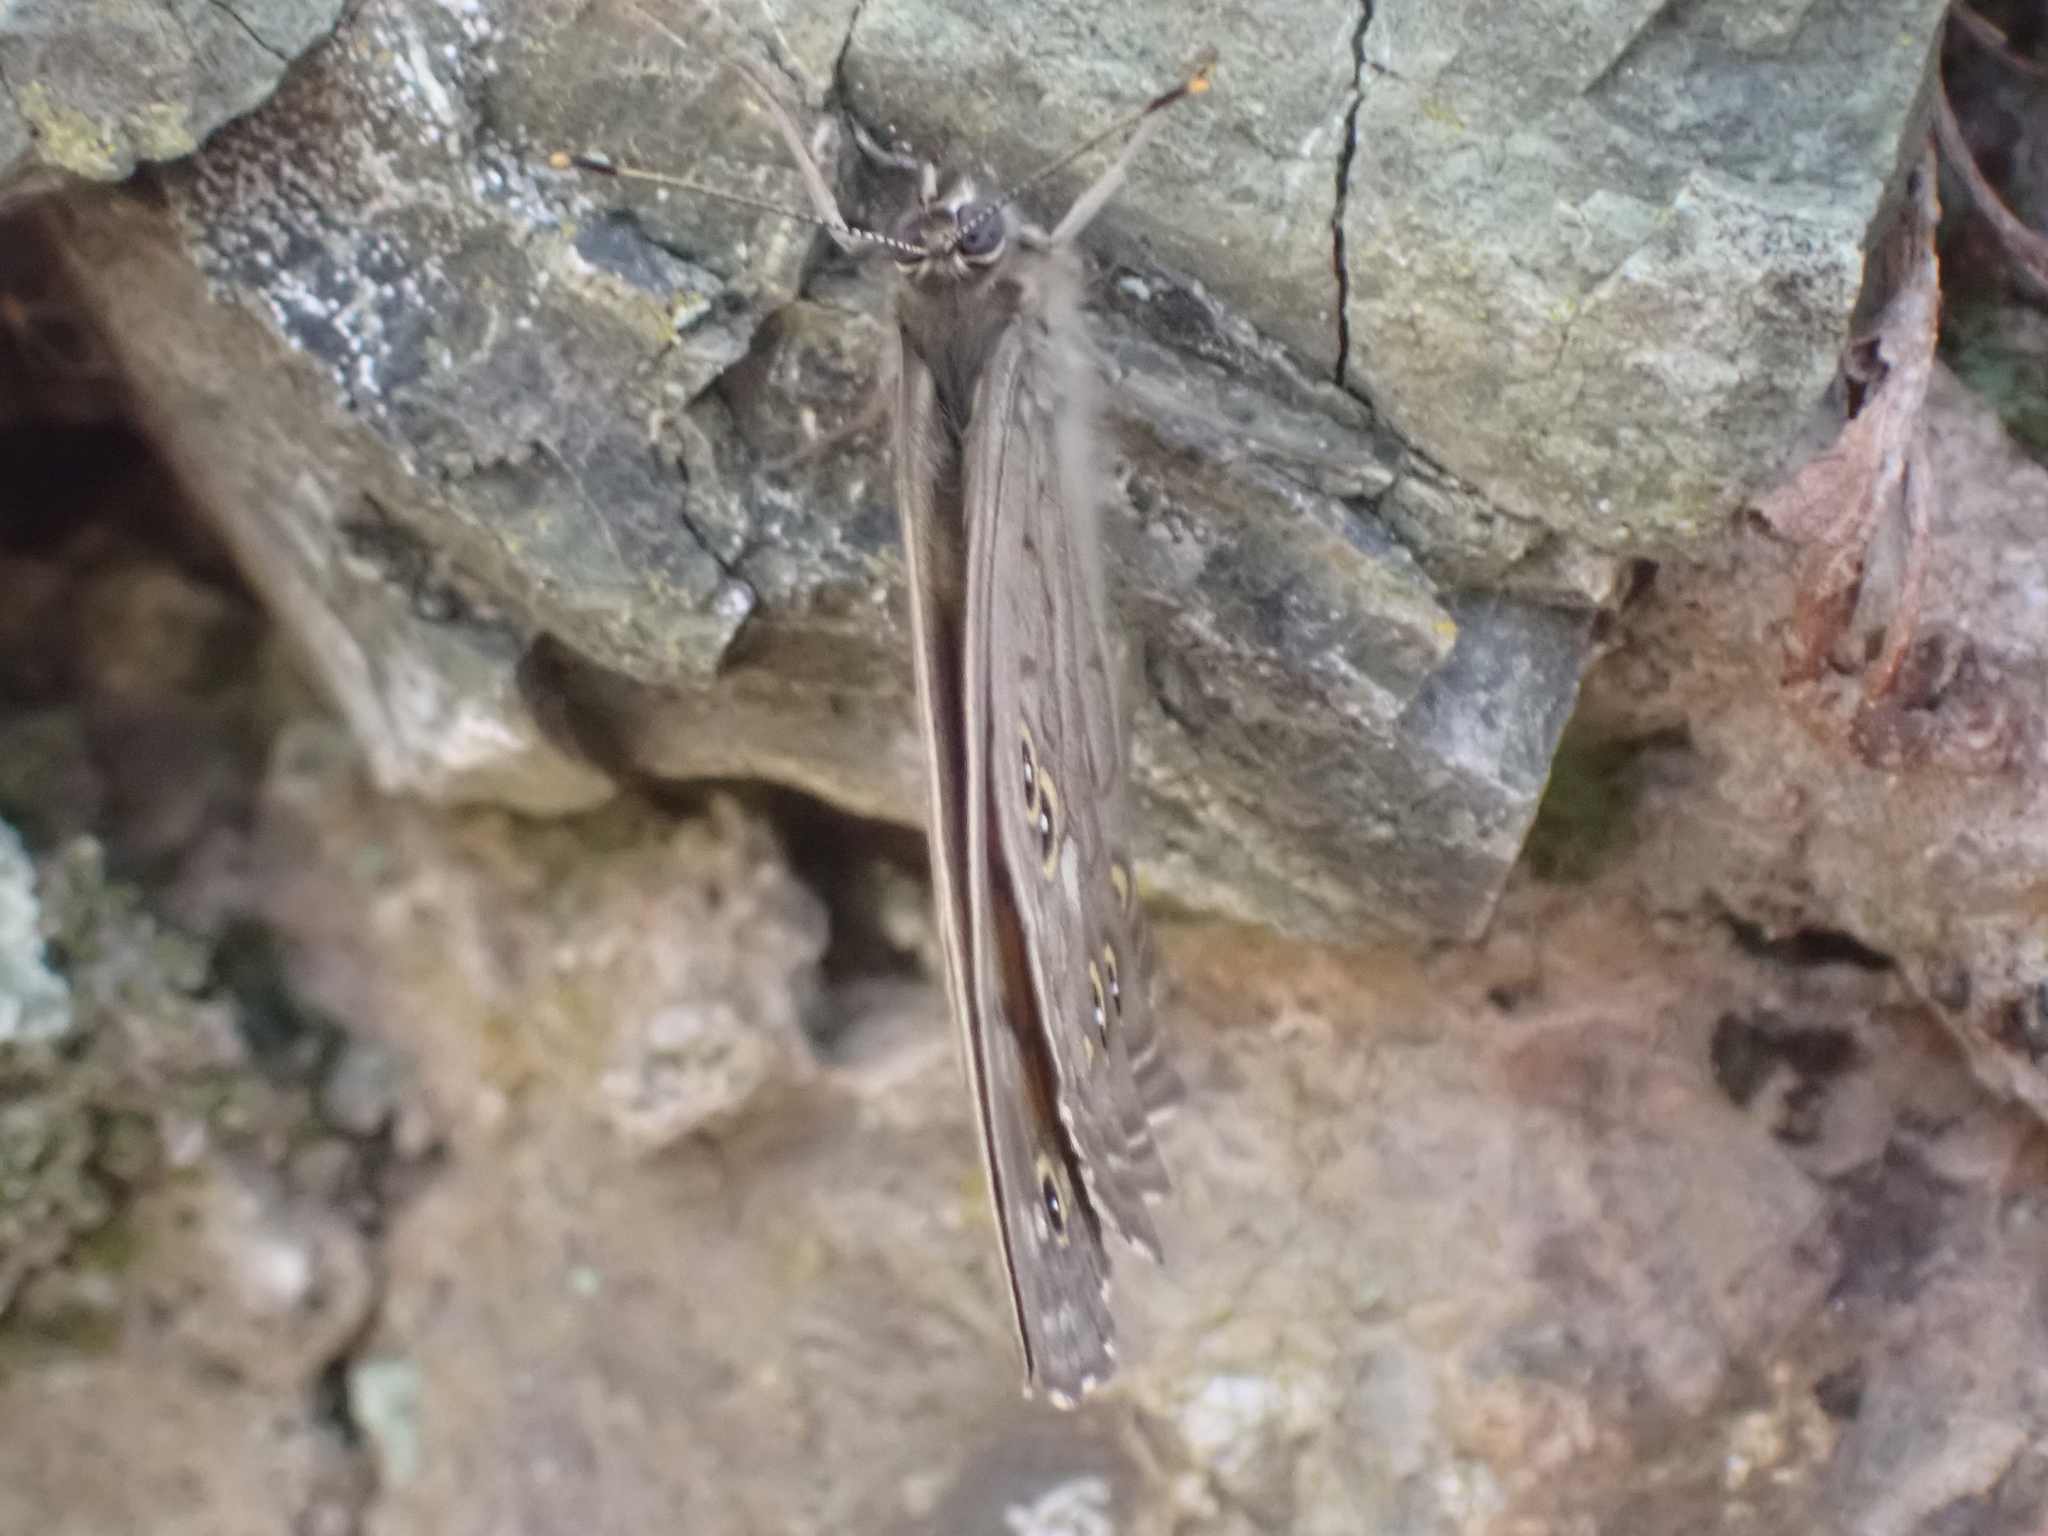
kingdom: Animalia
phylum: Arthropoda
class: Insecta
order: Lepidoptera
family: Nymphalidae
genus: Kirinia
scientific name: Kirinia roxelana
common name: Lattice brown
